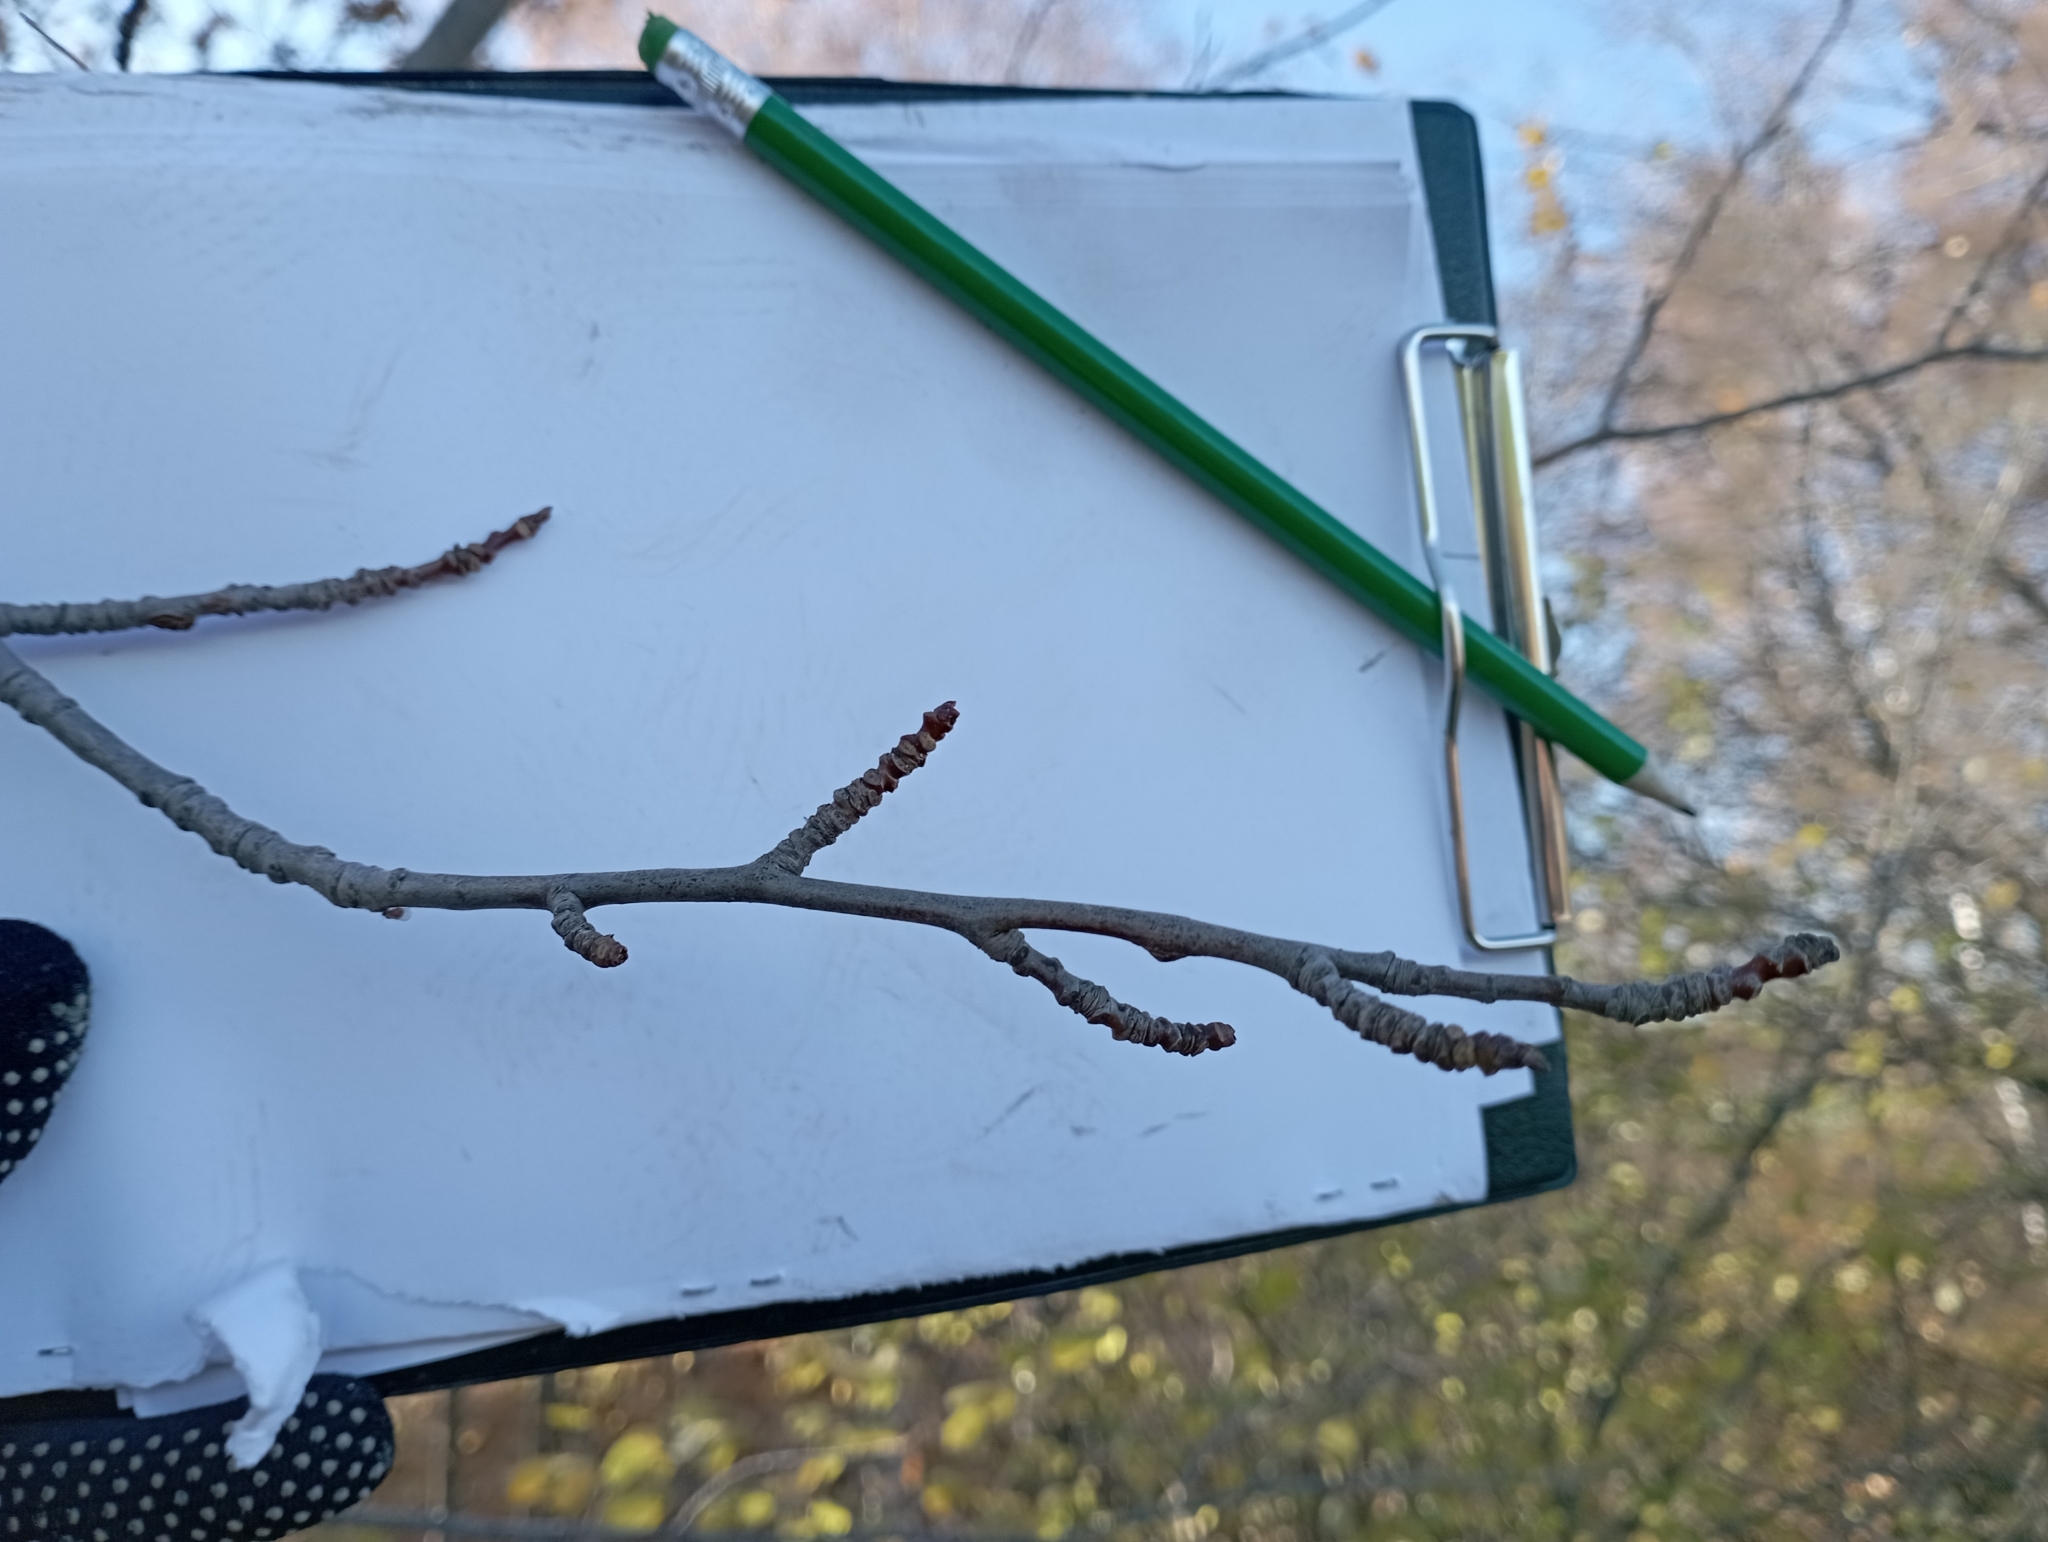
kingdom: Plantae
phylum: Tracheophyta
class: Magnoliopsida
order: Malpighiales
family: Salicaceae
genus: Populus
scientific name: Populus tremula
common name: European aspen
